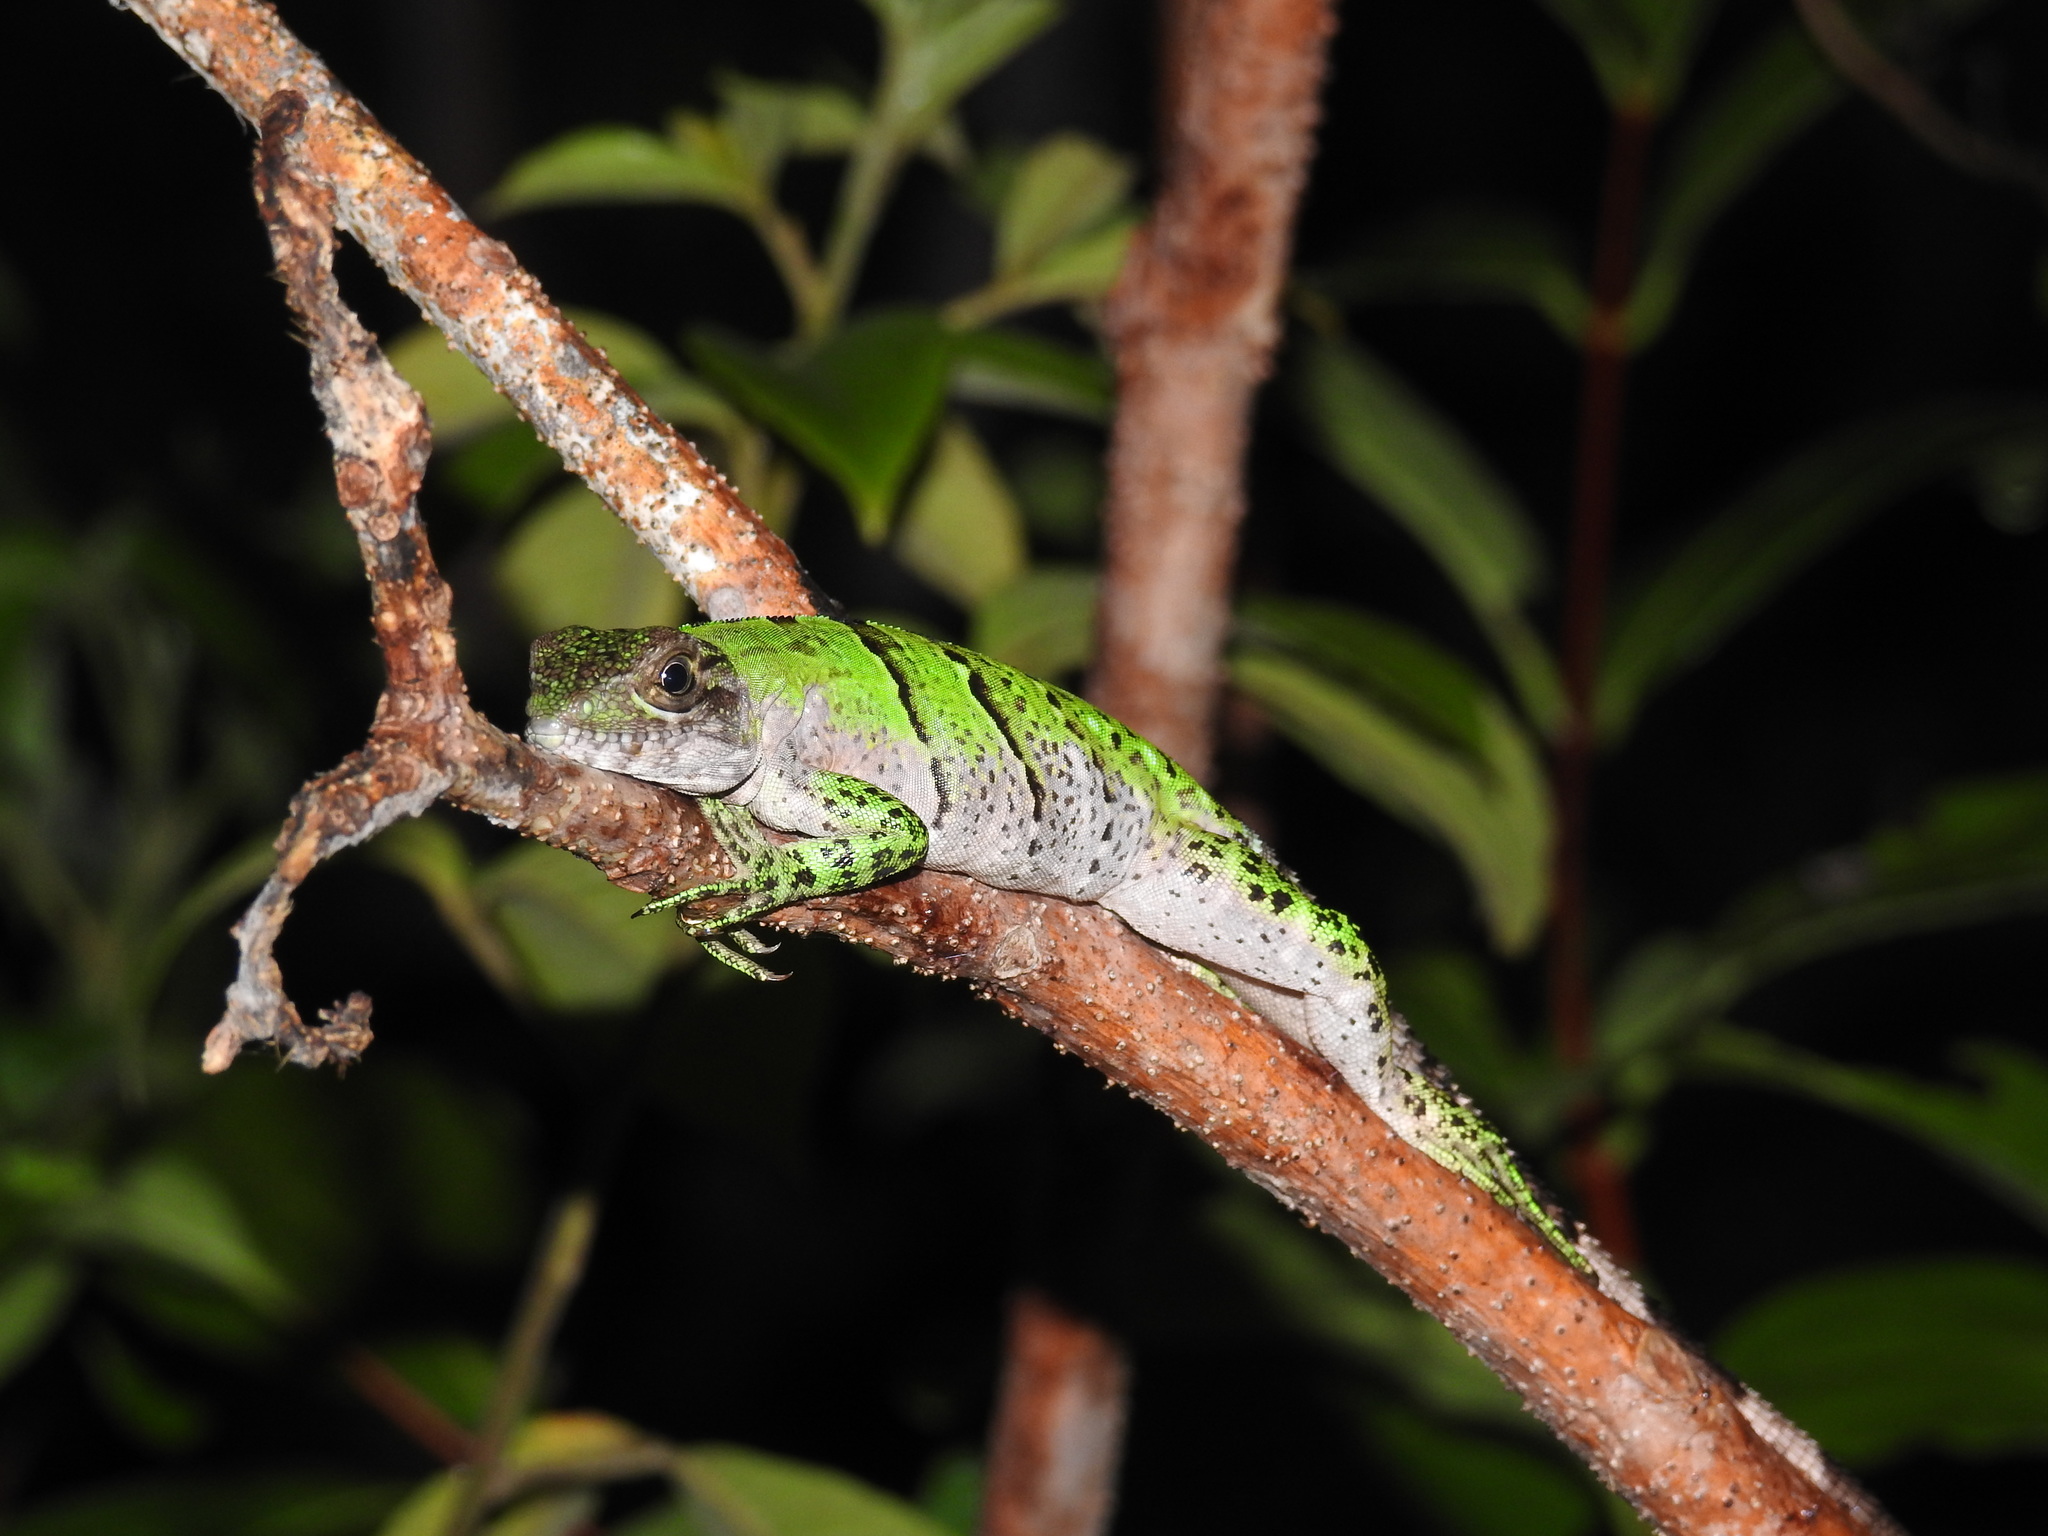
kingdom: Animalia
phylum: Chordata
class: Squamata
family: Iguanidae
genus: Ctenosaura
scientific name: Ctenosaura similis
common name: Black spiny-tailed iguana
